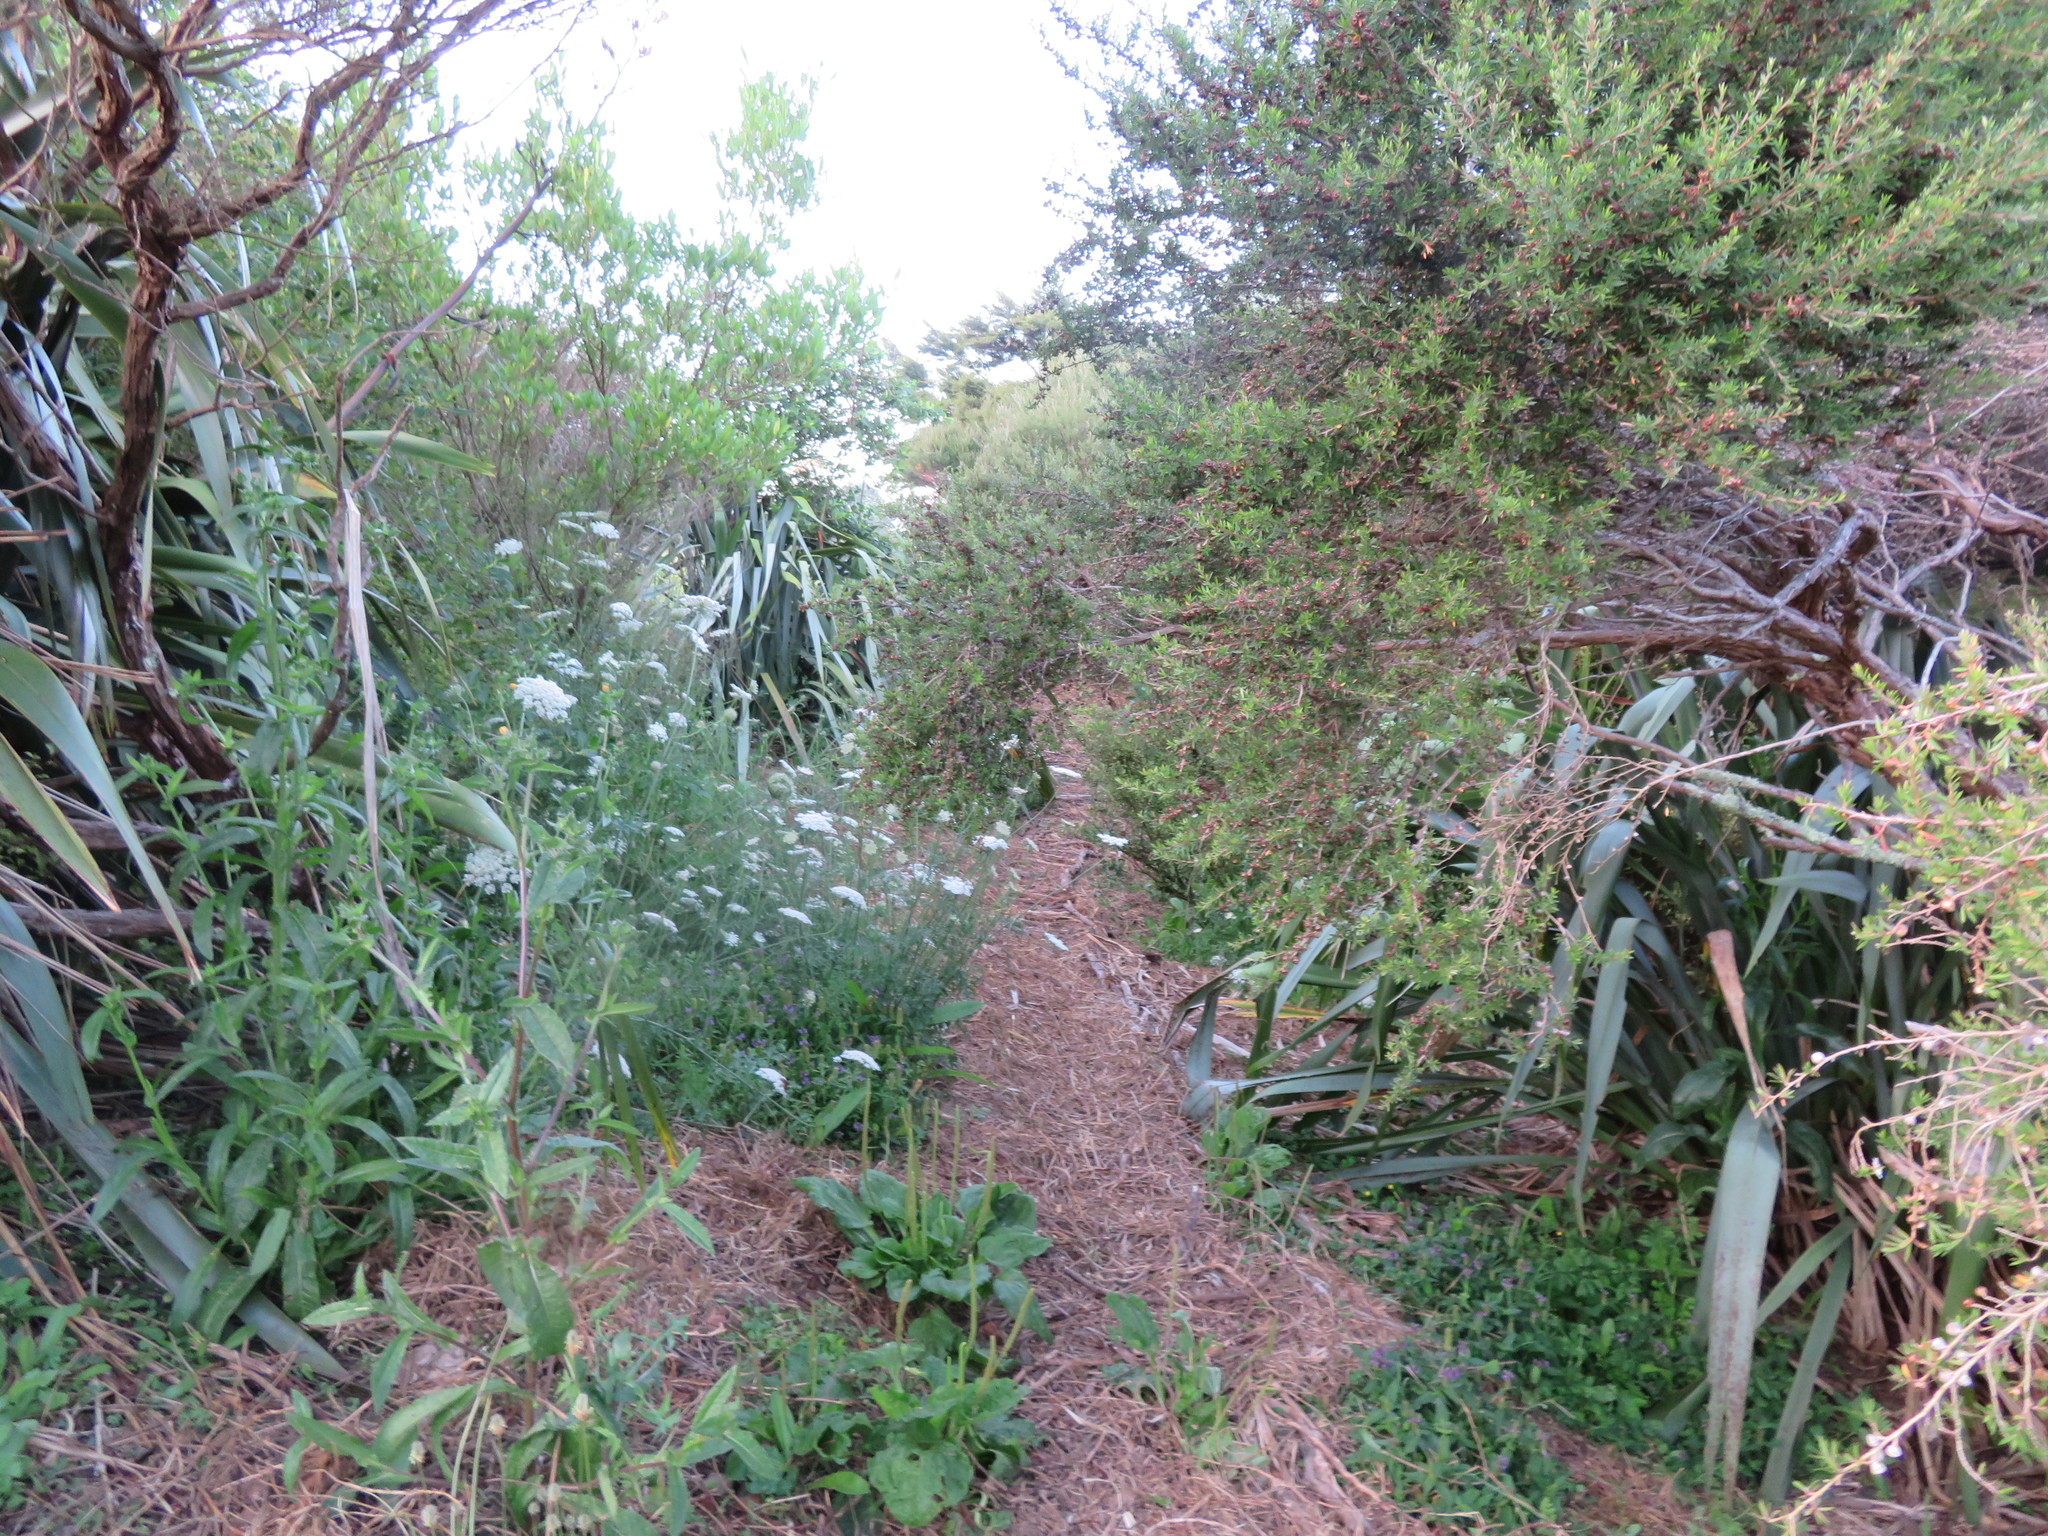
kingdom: Plantae
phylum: Tracheophyta
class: Magnoliopsida
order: Lamiales
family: Plantaginaceae
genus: Plantago
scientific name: Plantago major
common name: Common plantain
